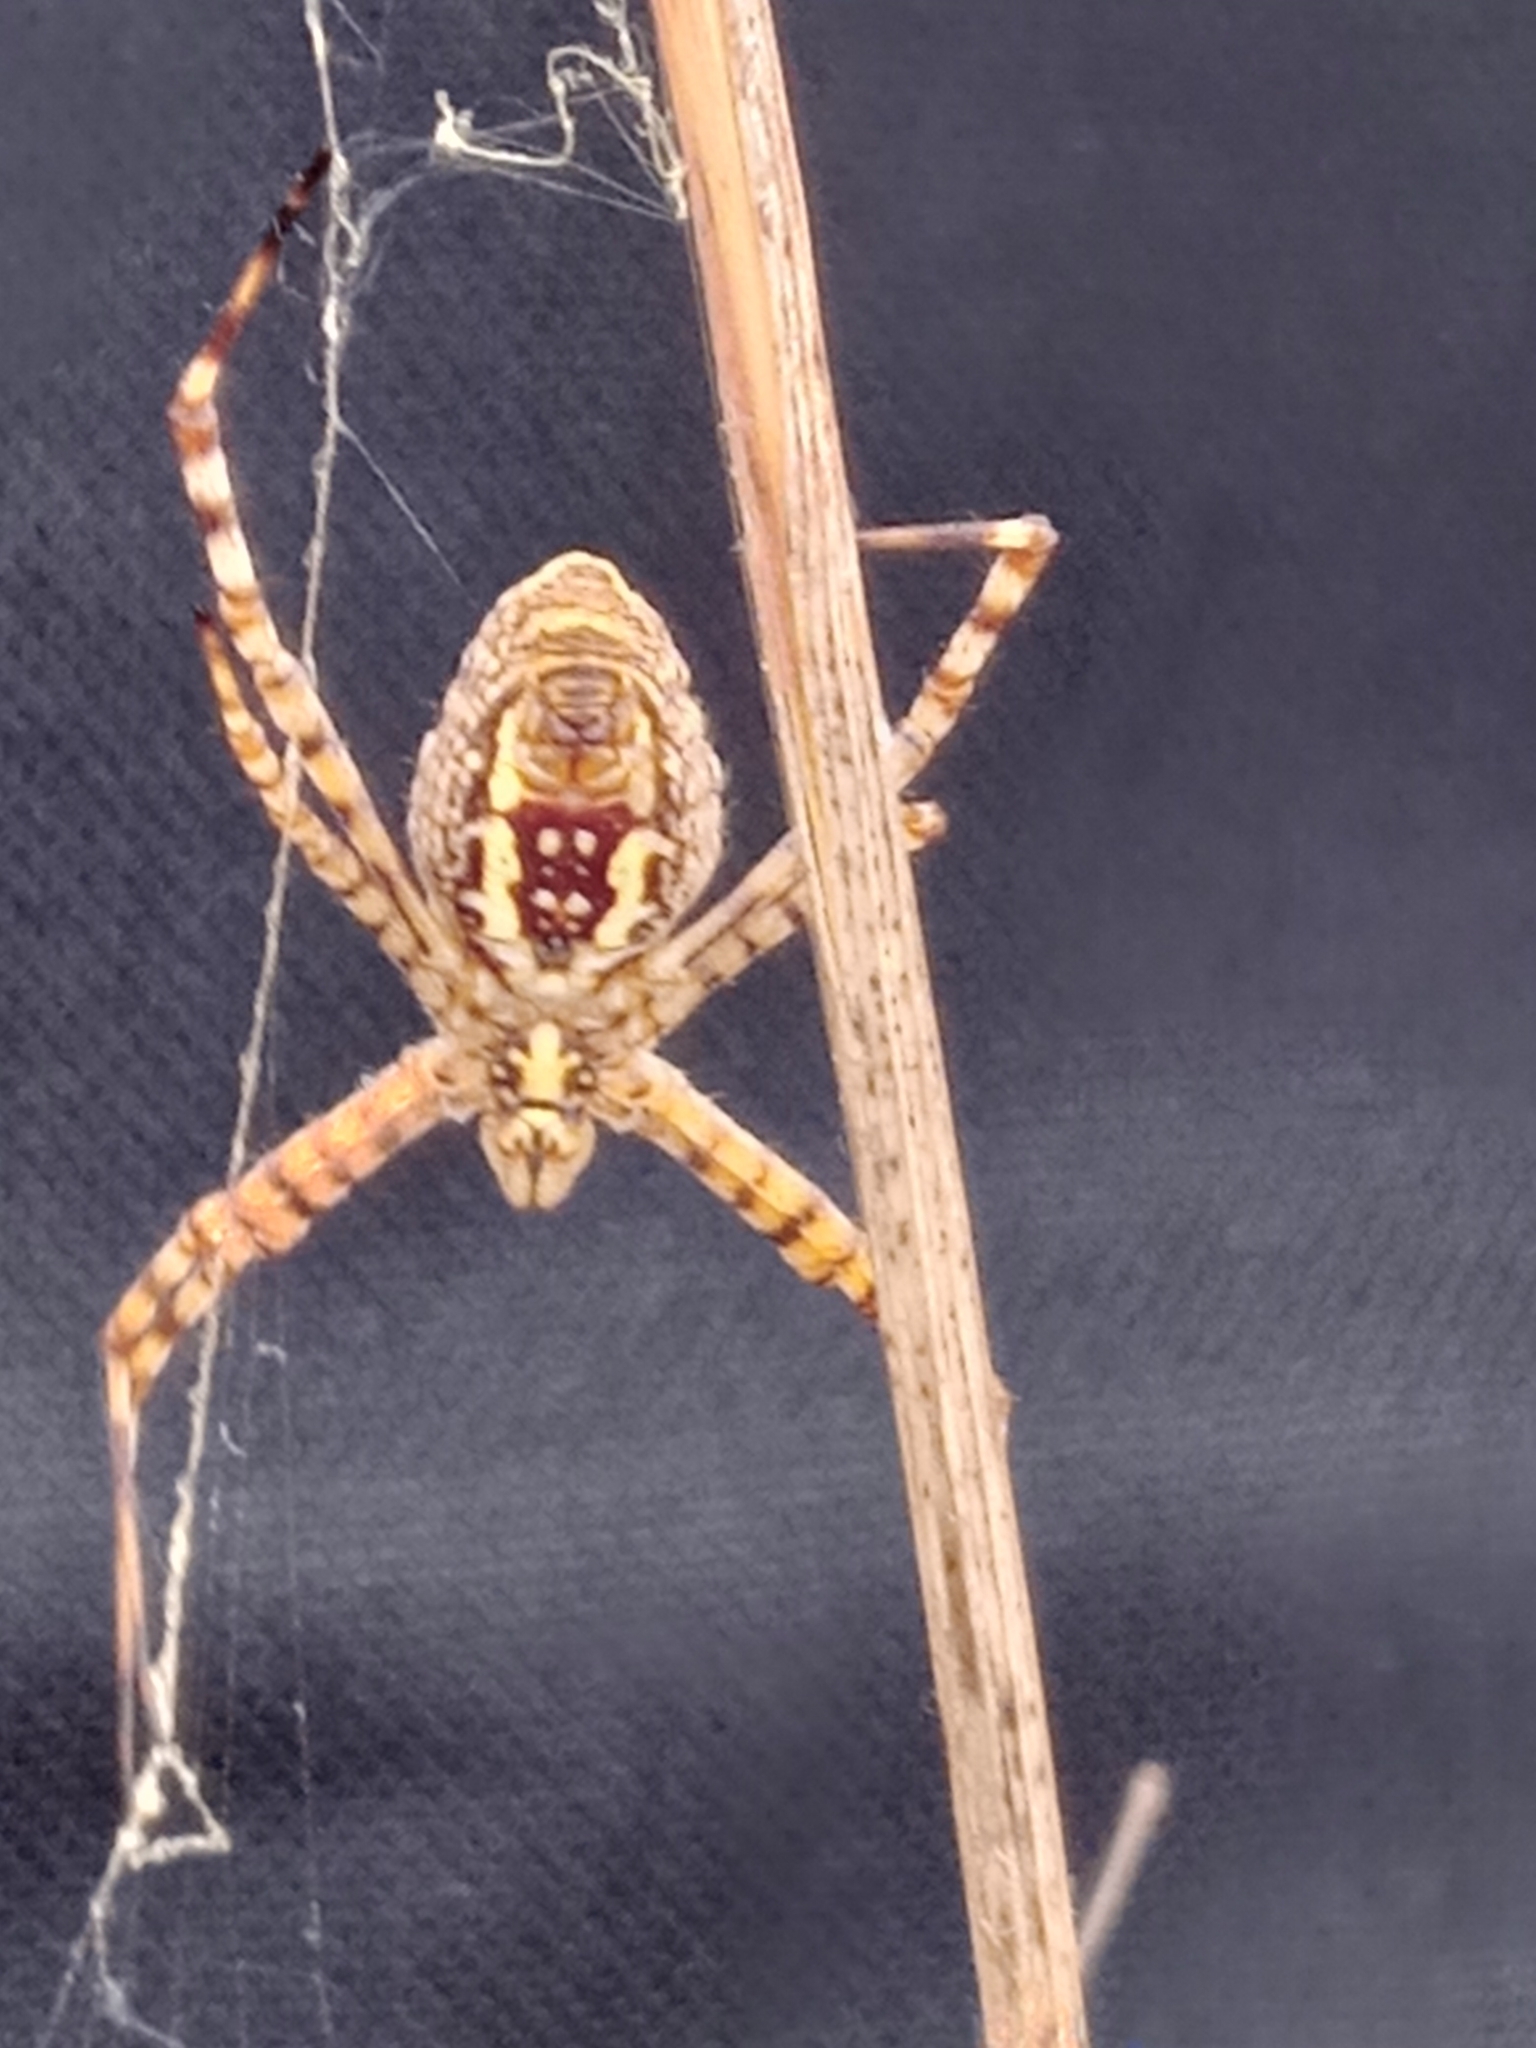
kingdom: Animalia
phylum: Arthropoda
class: Arachnida
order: Araneae
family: Araneidae
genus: Argiope
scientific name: Argiope trifasciata
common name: Banded garden spider
